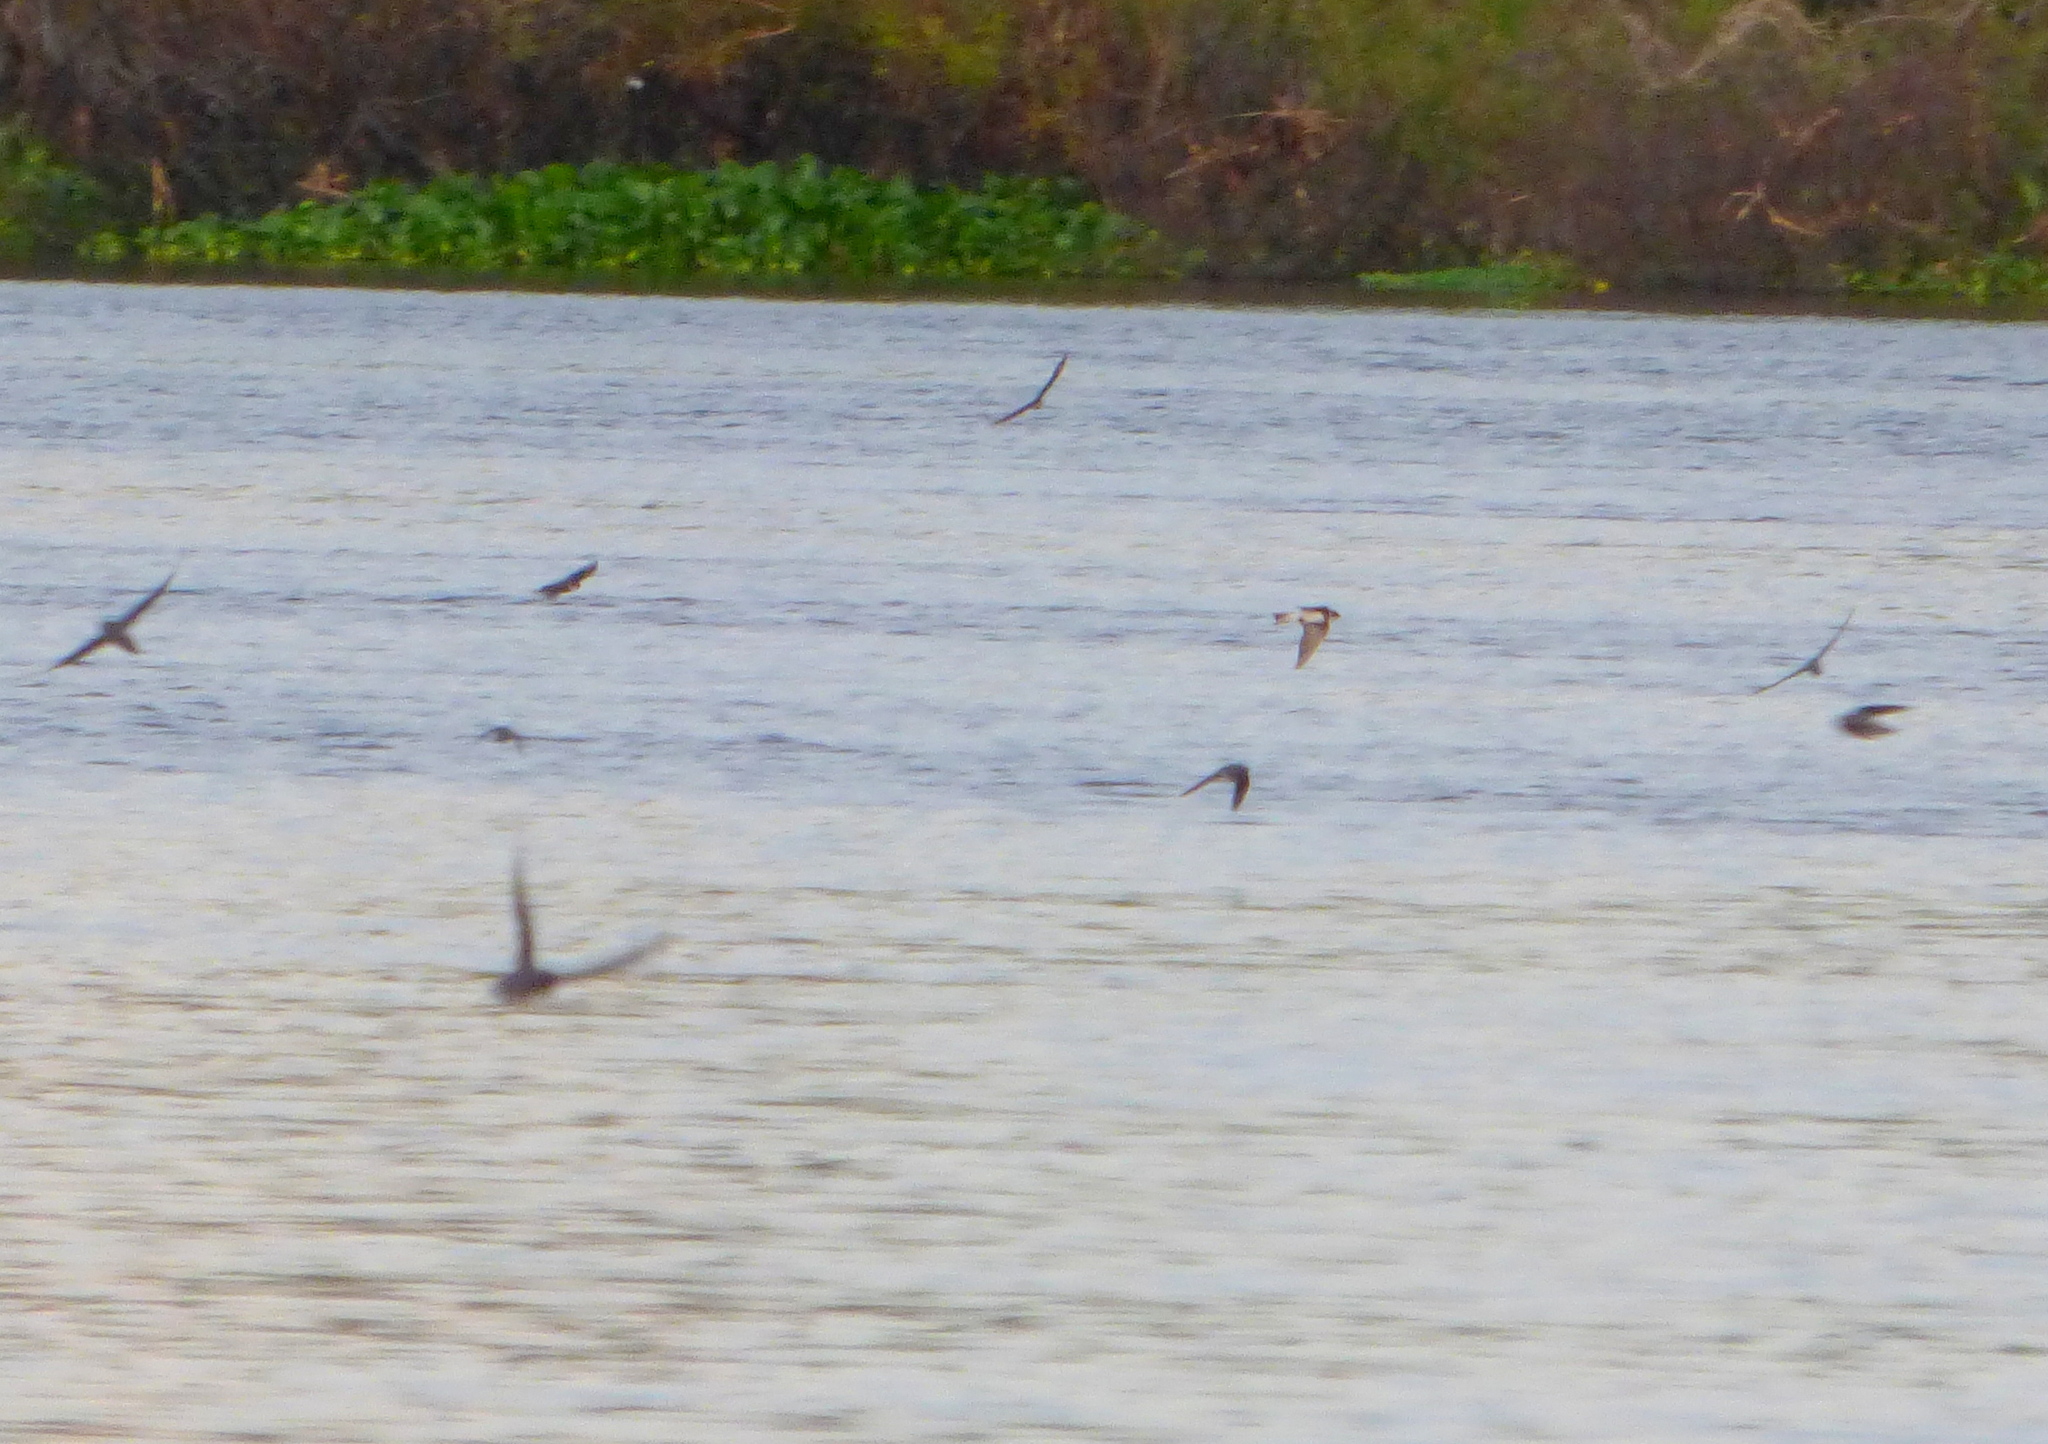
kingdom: Animalia
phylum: Chordata
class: Aves
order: Passeriformes
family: Hirundinidae
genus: Riparia
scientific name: Riparia riparia
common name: Sand martin
